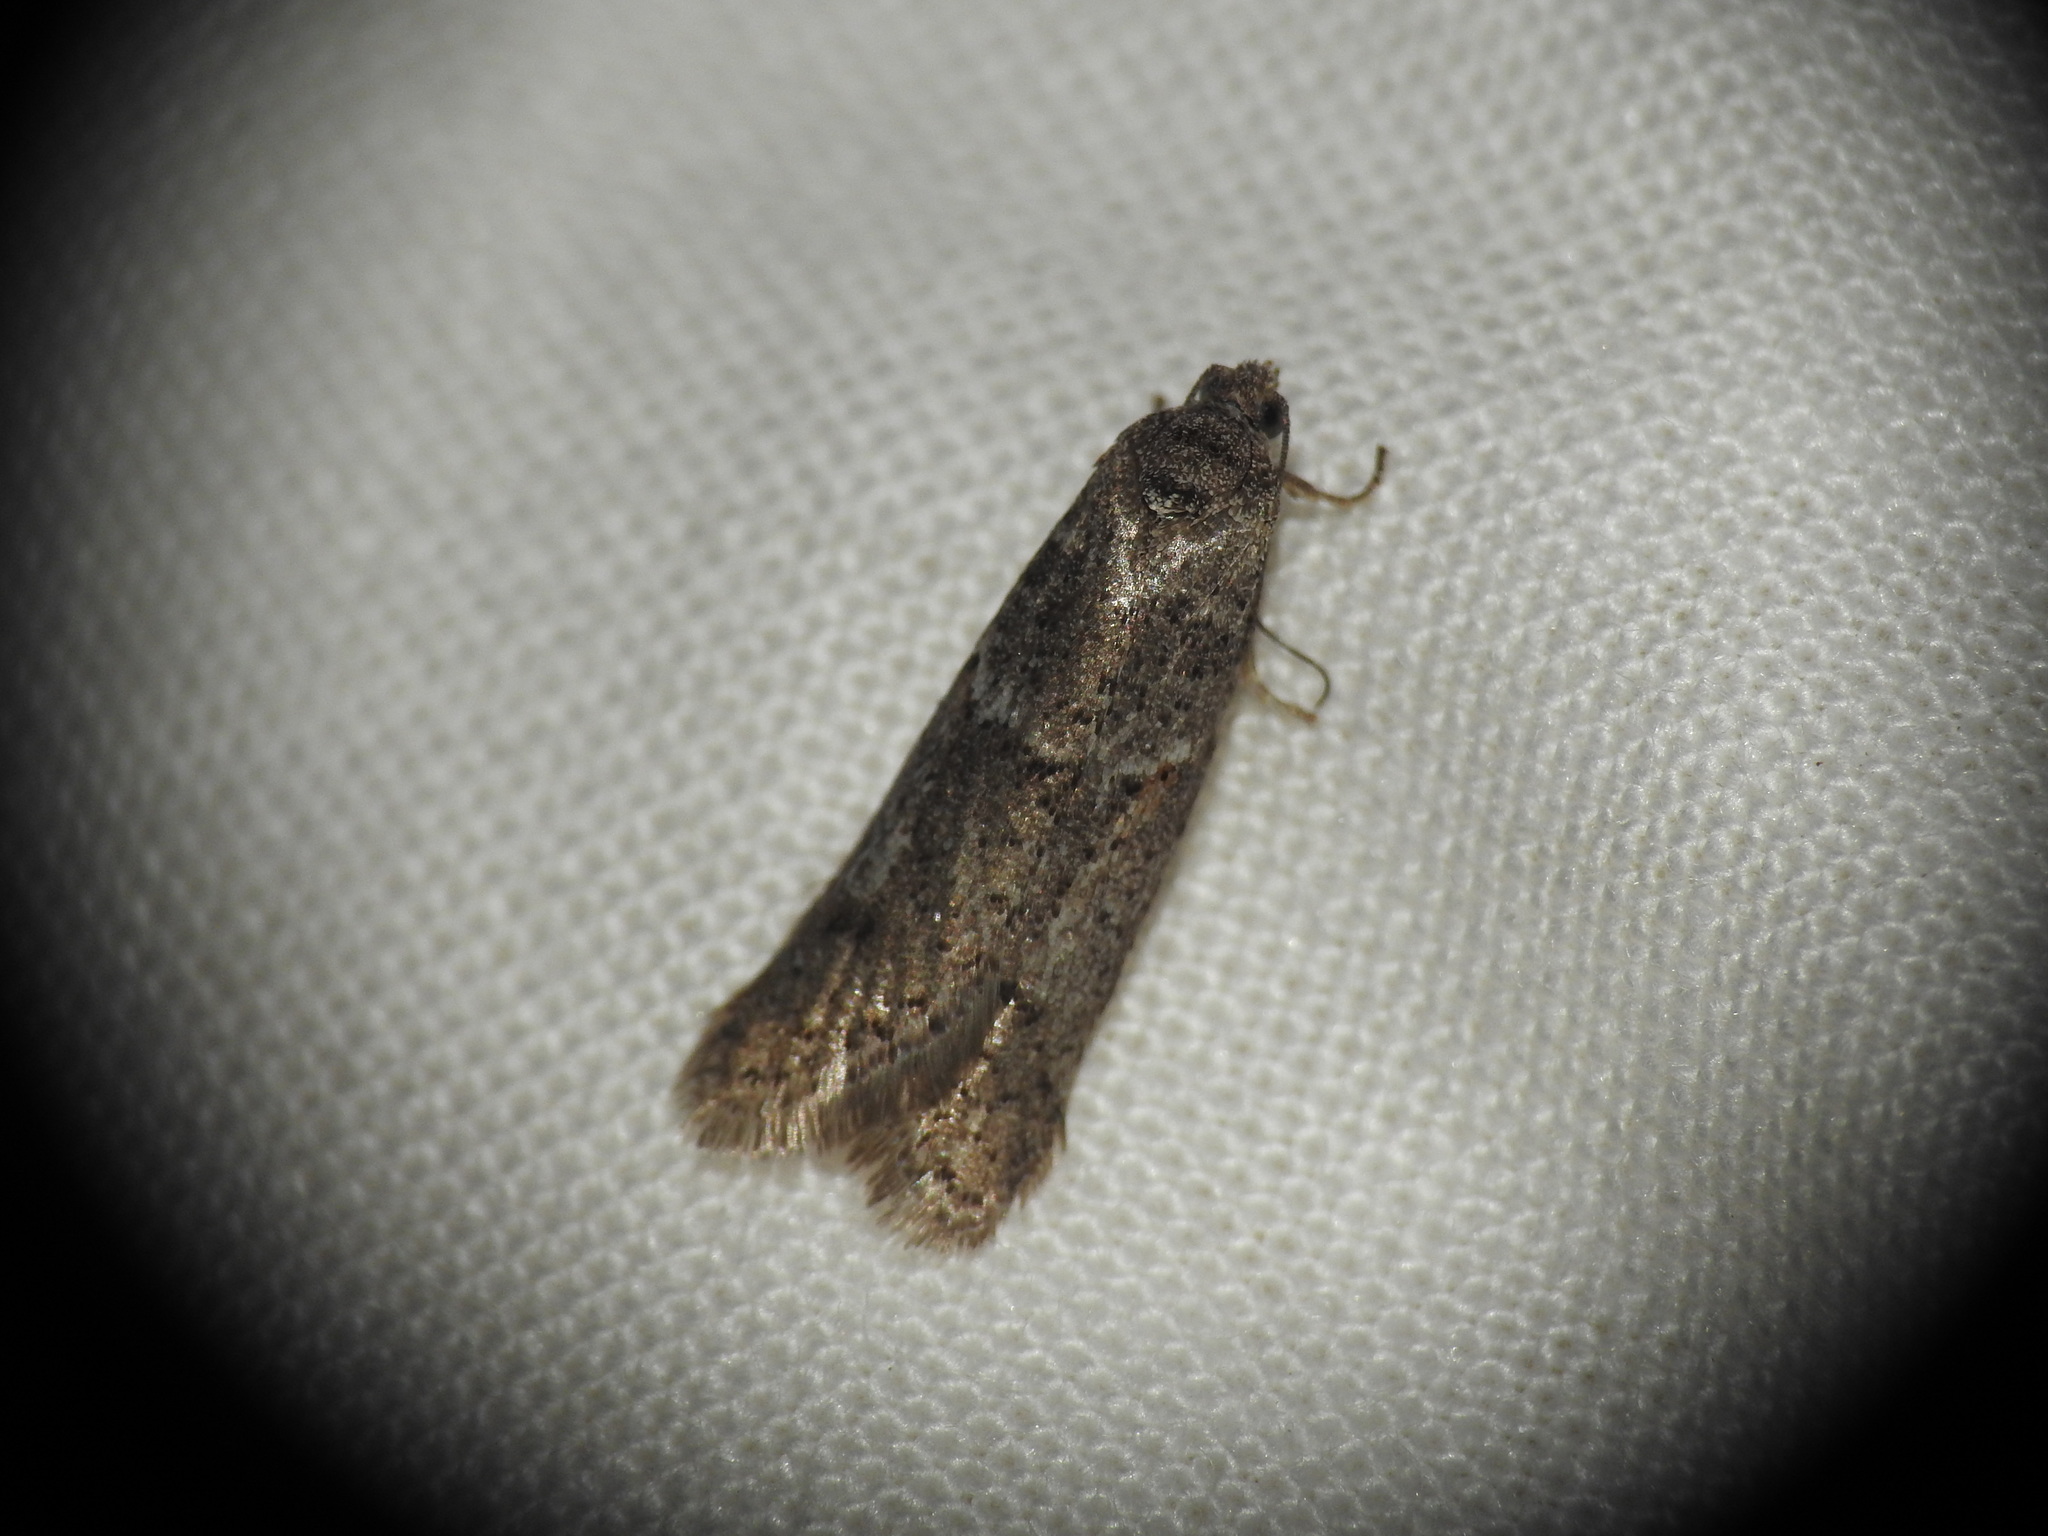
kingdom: Animalia
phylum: Arthropoda
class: Insecta
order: Lepidoptera
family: Tortricidae
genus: Tortricodes
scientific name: Tortricodes alternella
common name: Winter shade
